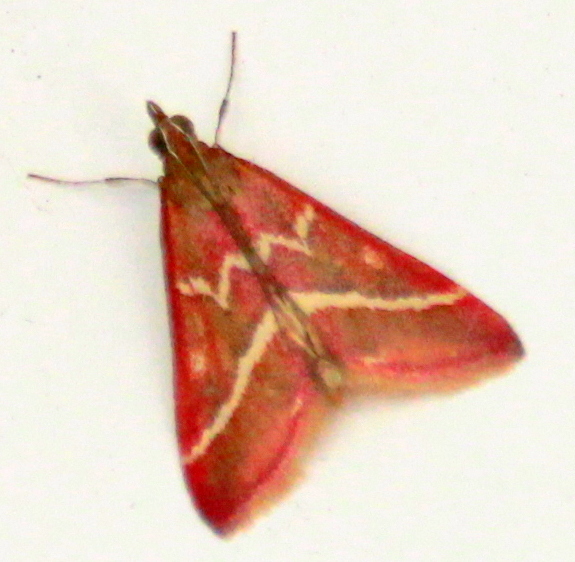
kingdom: Animalia
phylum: Arthropoda
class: Insecta
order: Lepidoptera
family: Crambidae
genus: Pyrausta
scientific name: Pyrausta volupialis
